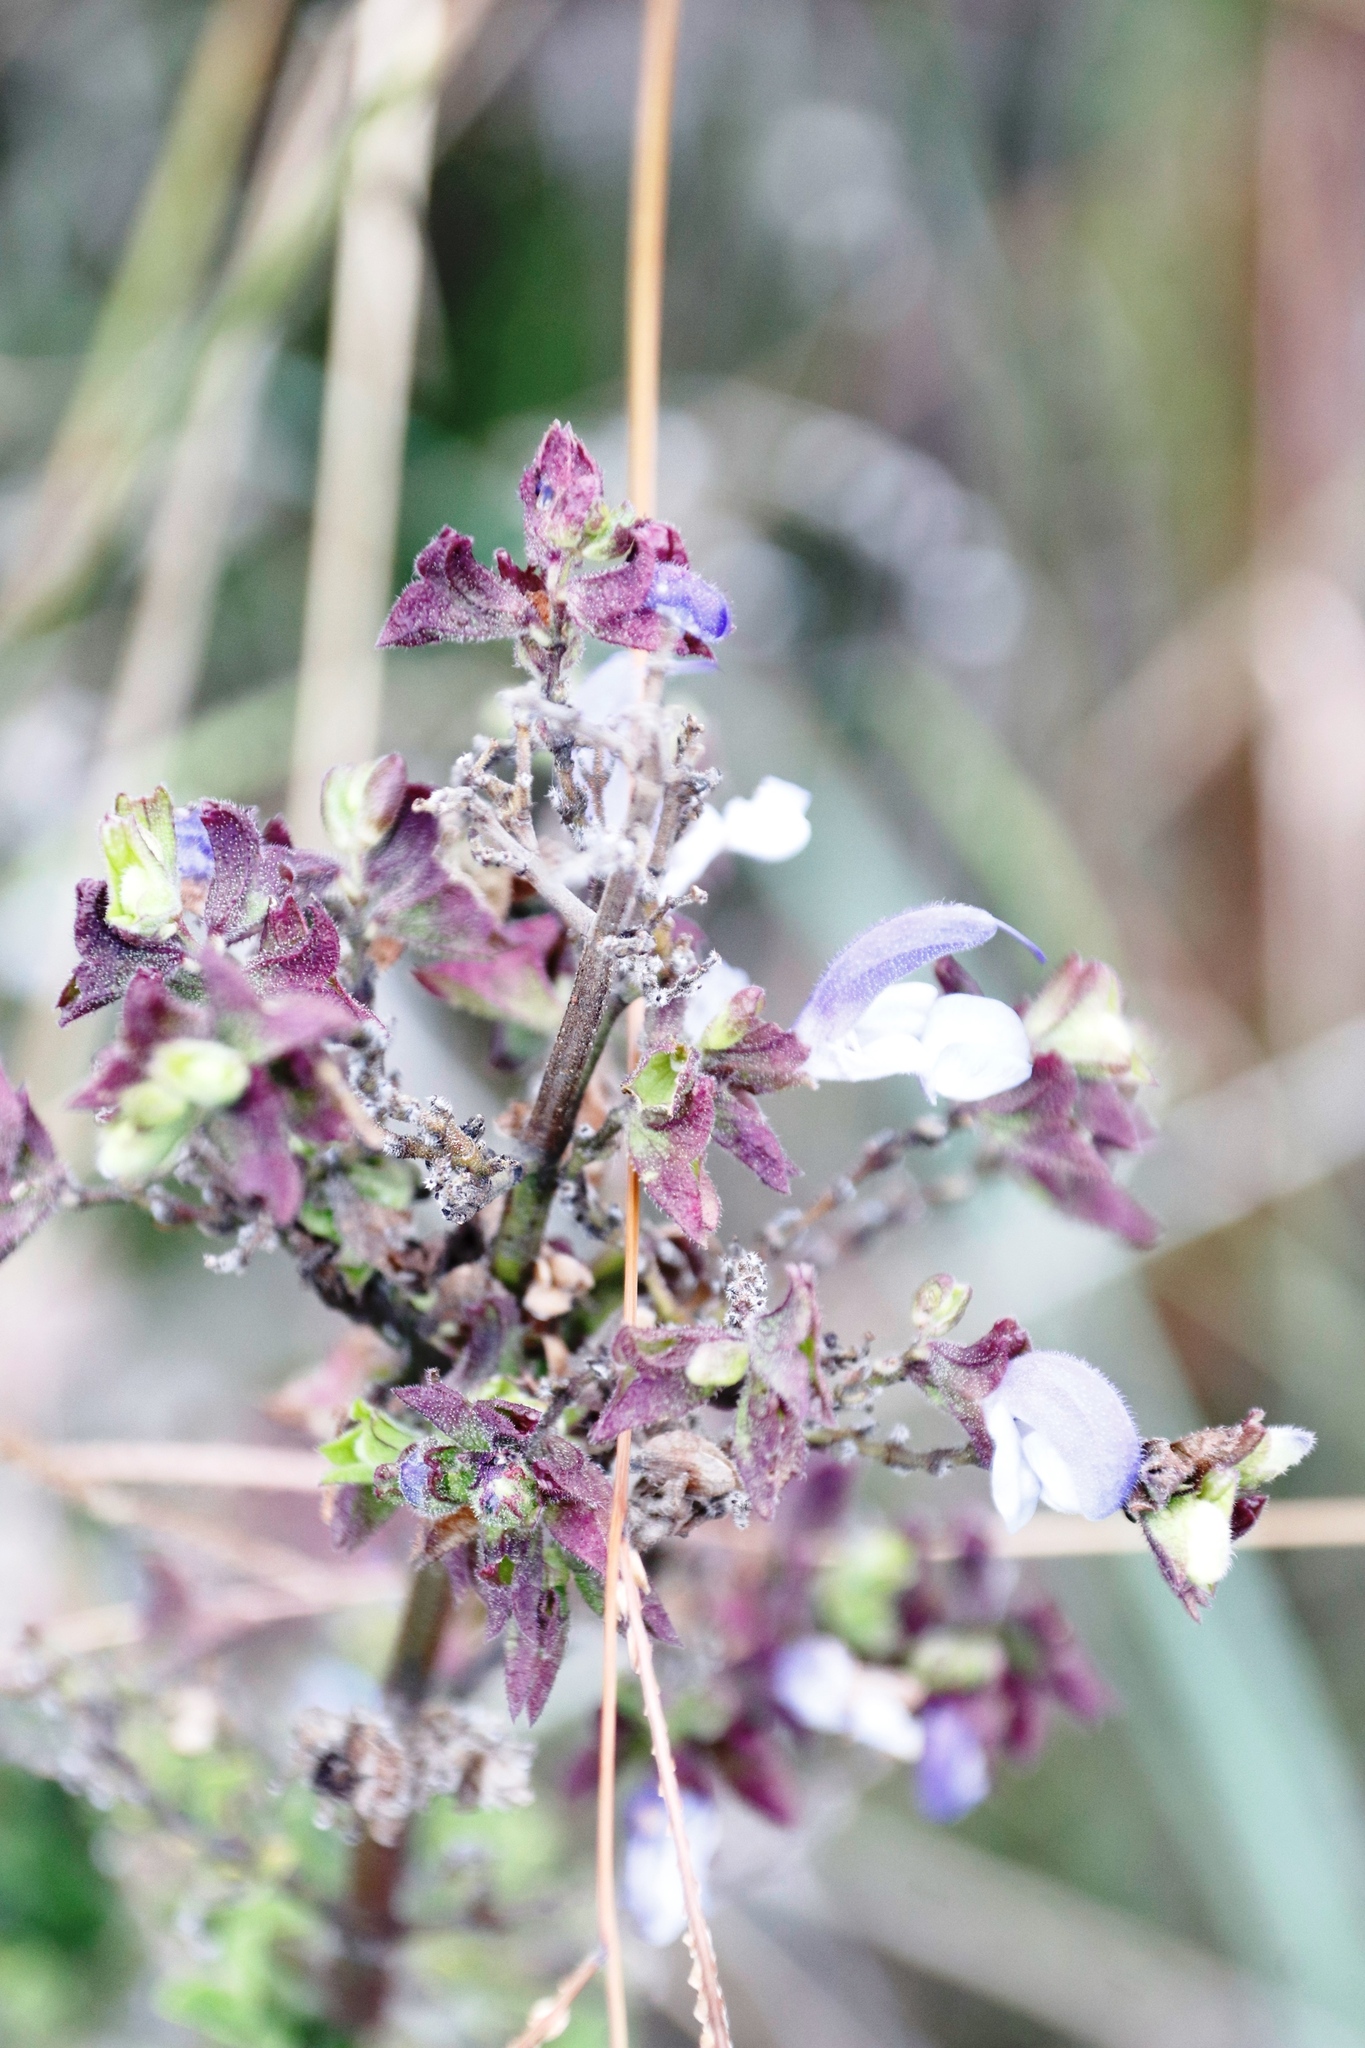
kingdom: Plantae
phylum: Tracheophyta
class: Magnoliopsida
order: Lamiales
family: Lamiaceae
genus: Salvia
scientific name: Salvia chamelaeagnea
